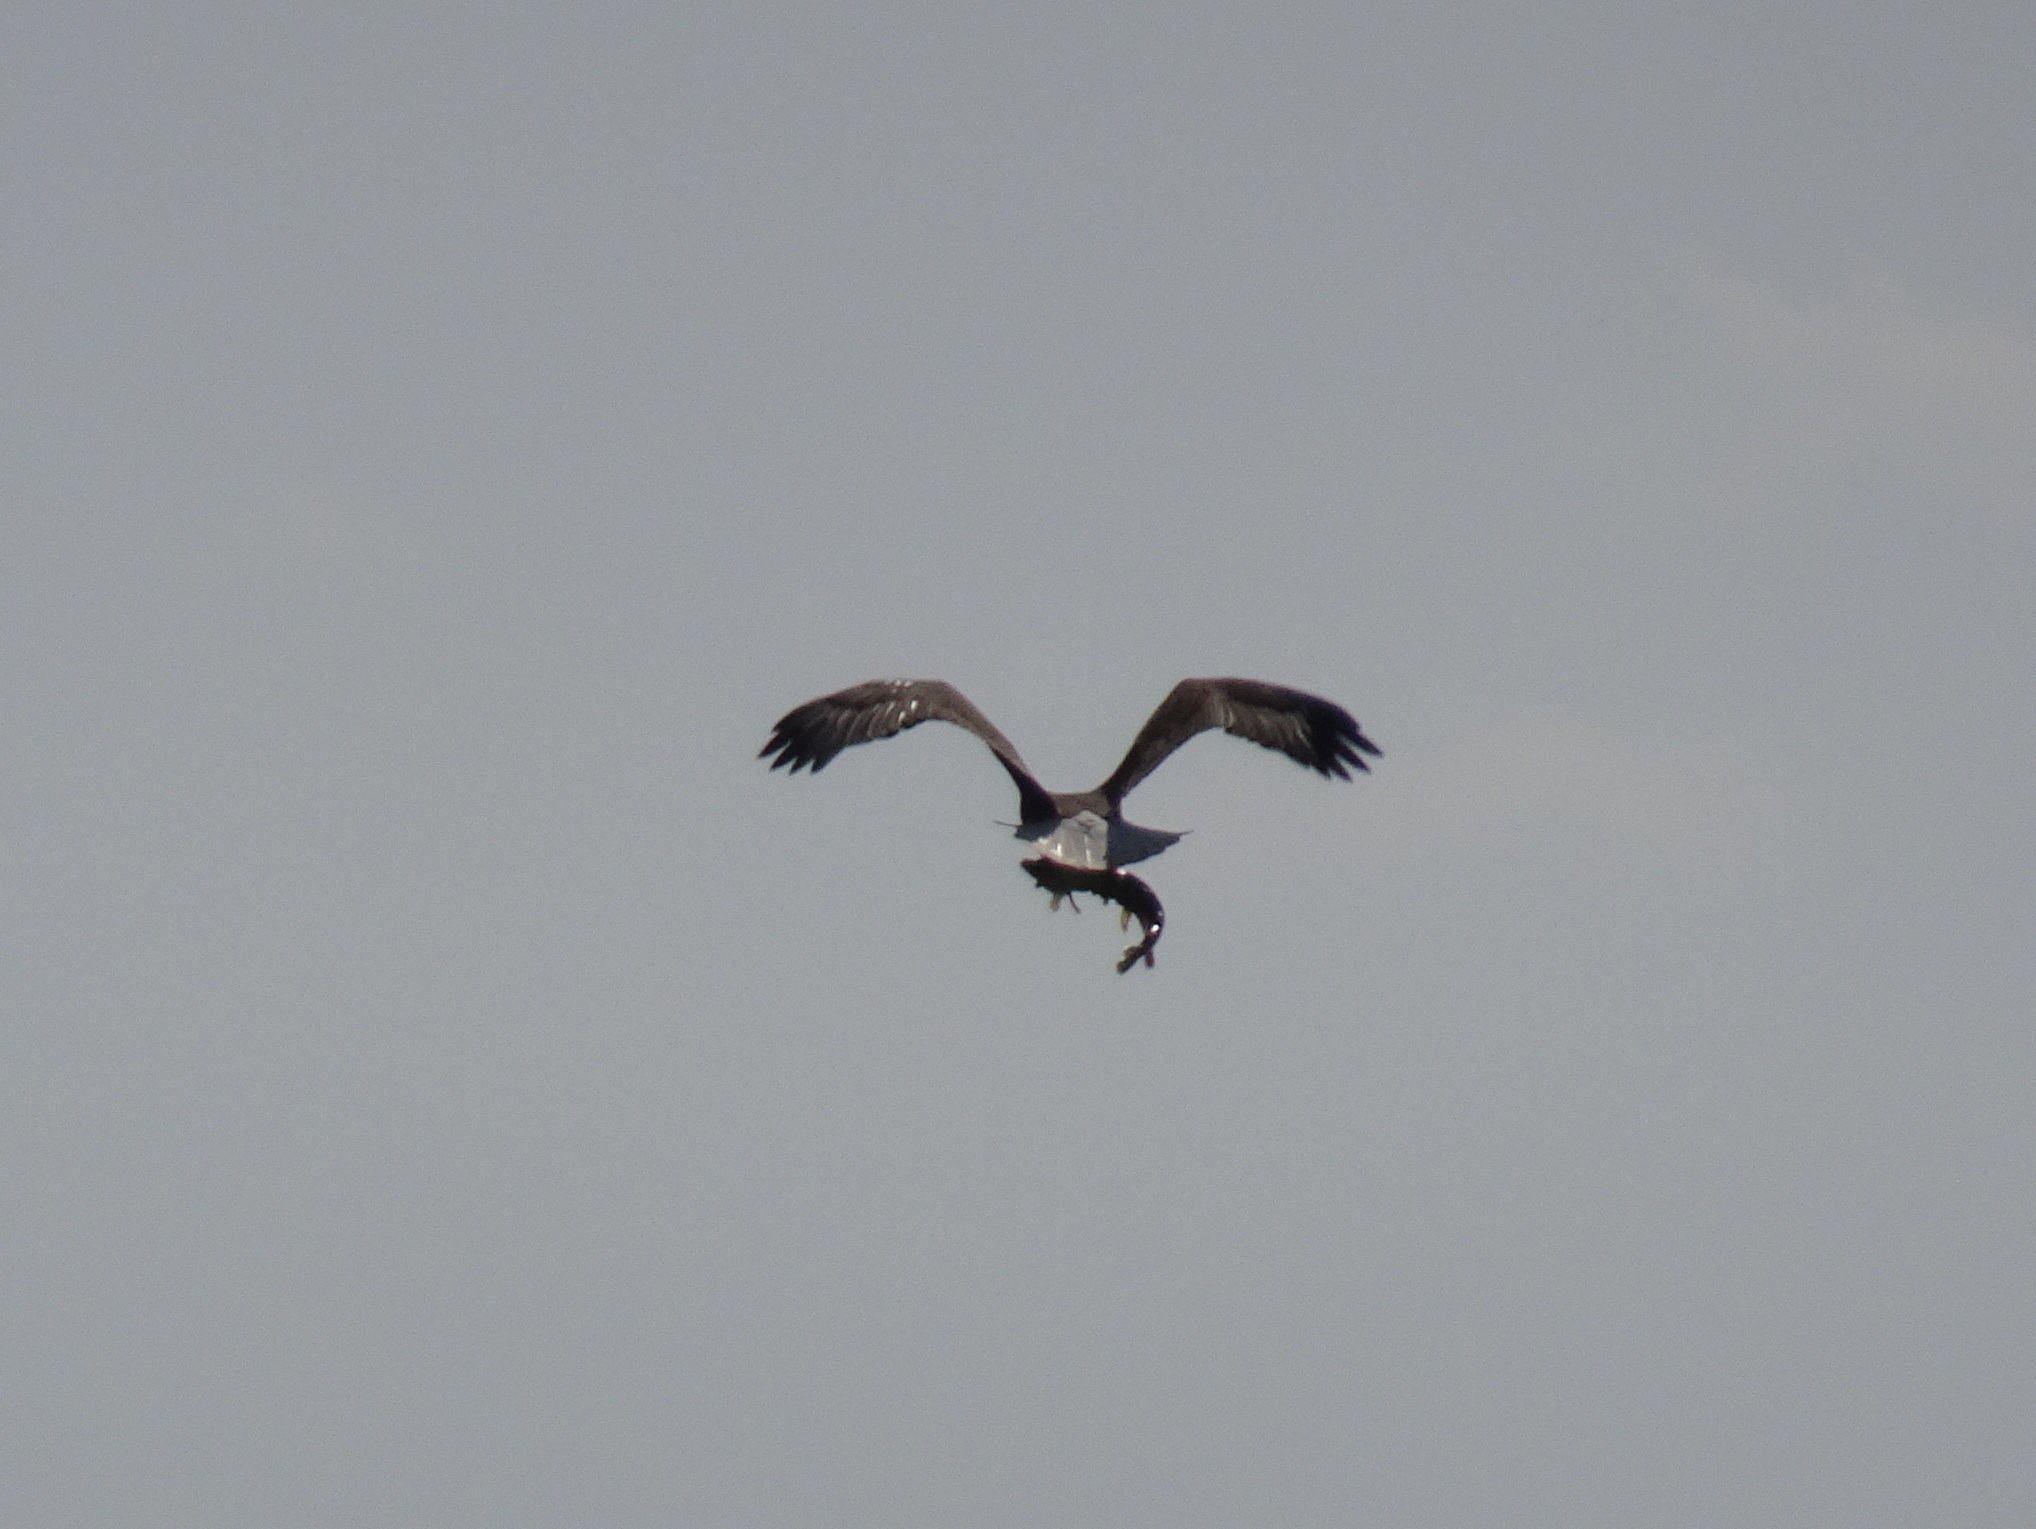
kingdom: Animalia
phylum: Chordata
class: Aves
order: Accipitriformes
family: Accipitridae
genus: Haliaeetus
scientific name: Haliaeetus leucocephalus
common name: Bald eagle
